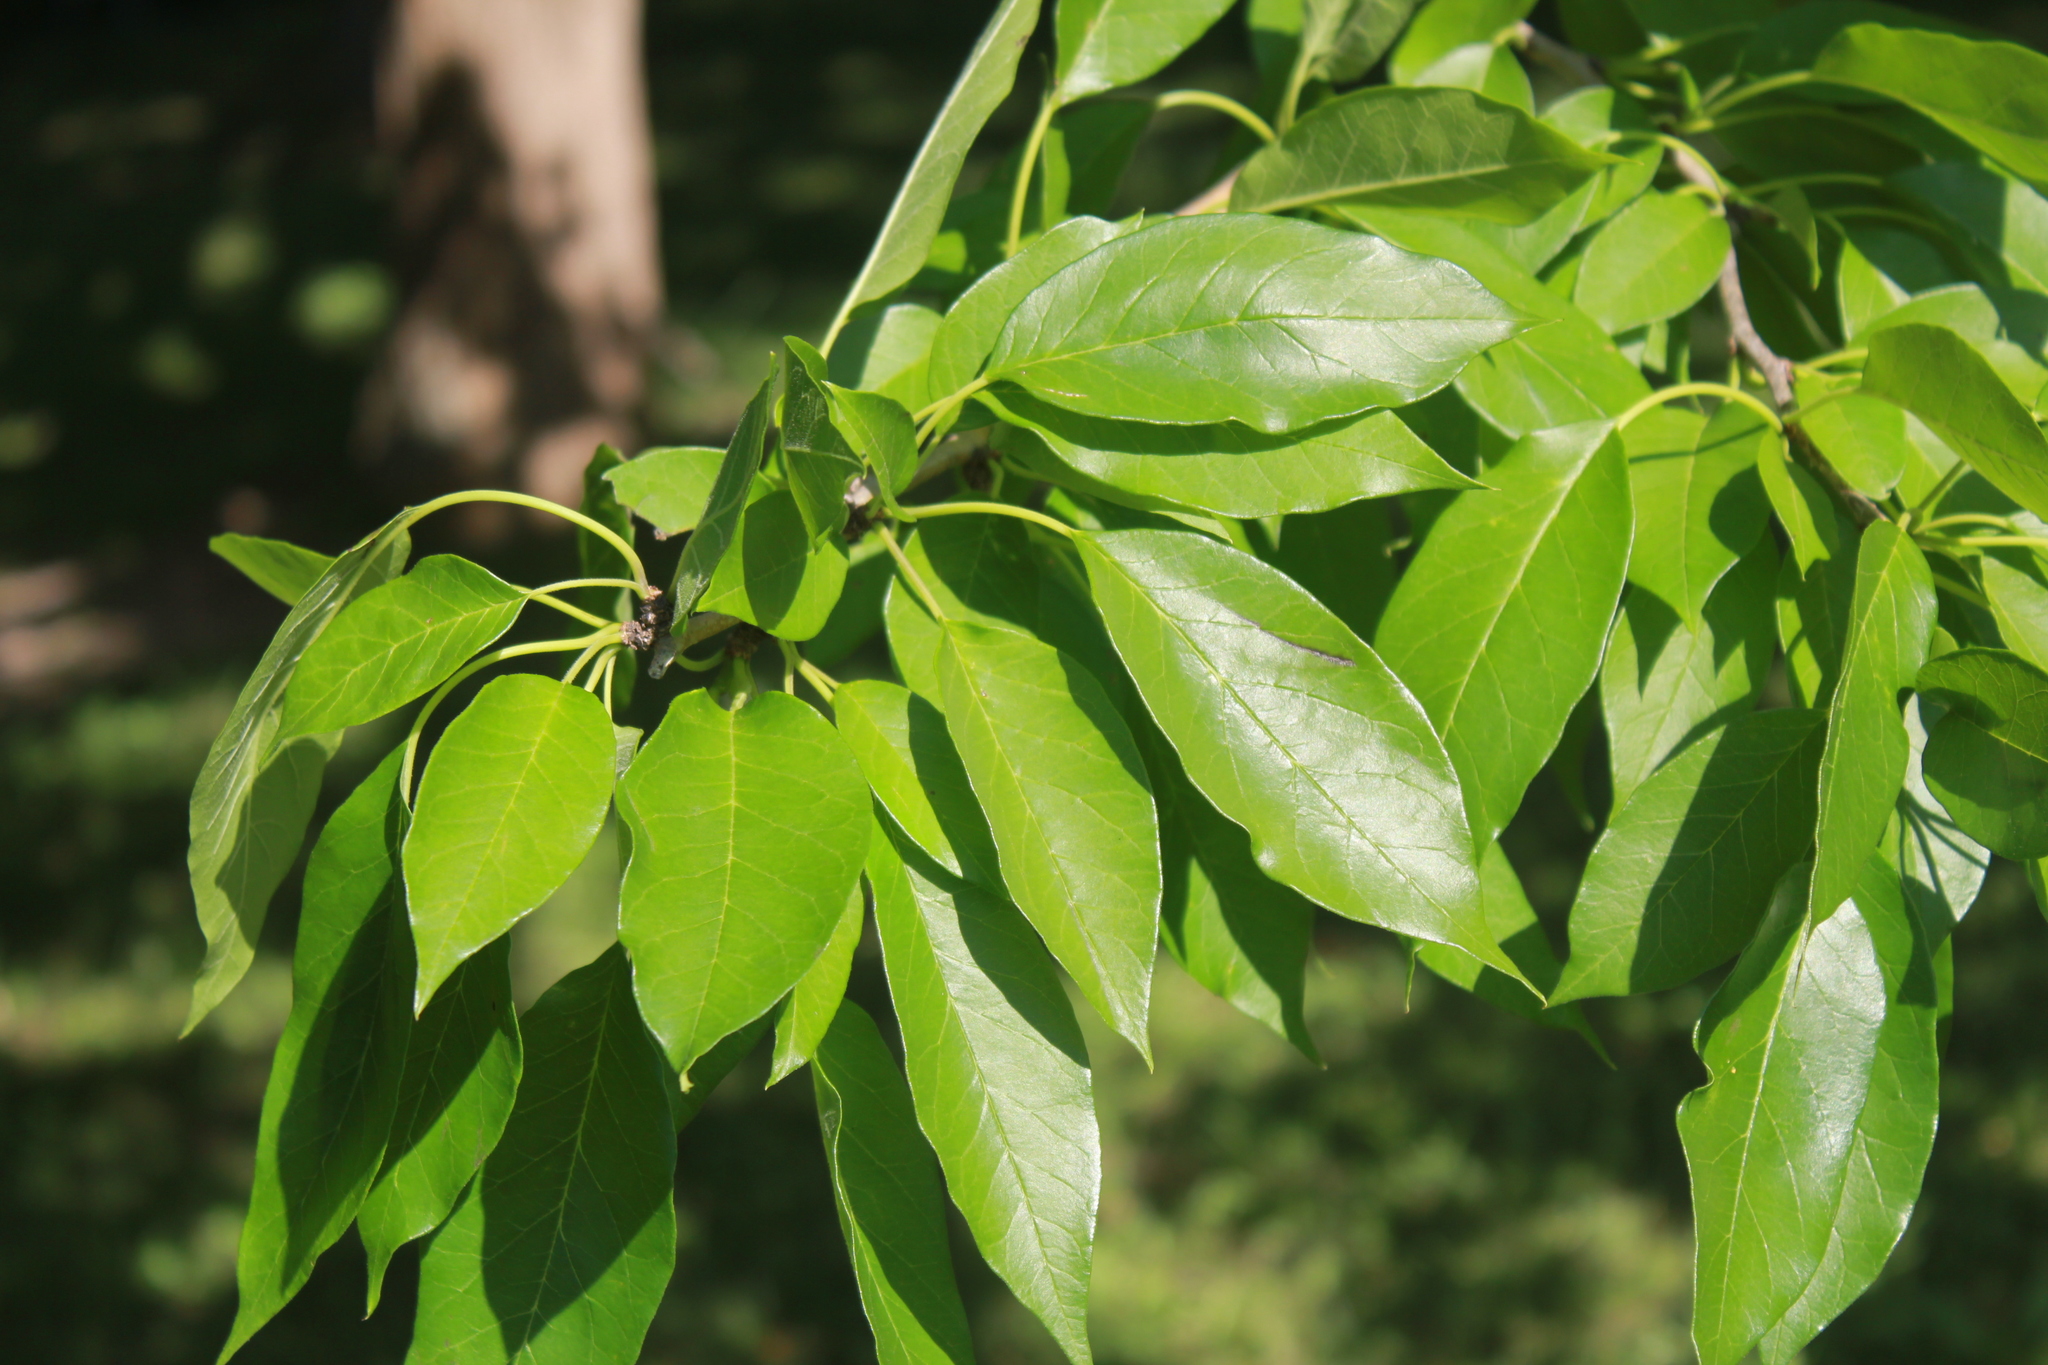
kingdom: Plantae
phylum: Tracheophyta
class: Magnoliopsida
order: Rosales
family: Moraceae
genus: Maclura
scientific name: Maclura pomifera
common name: Osage-orange
